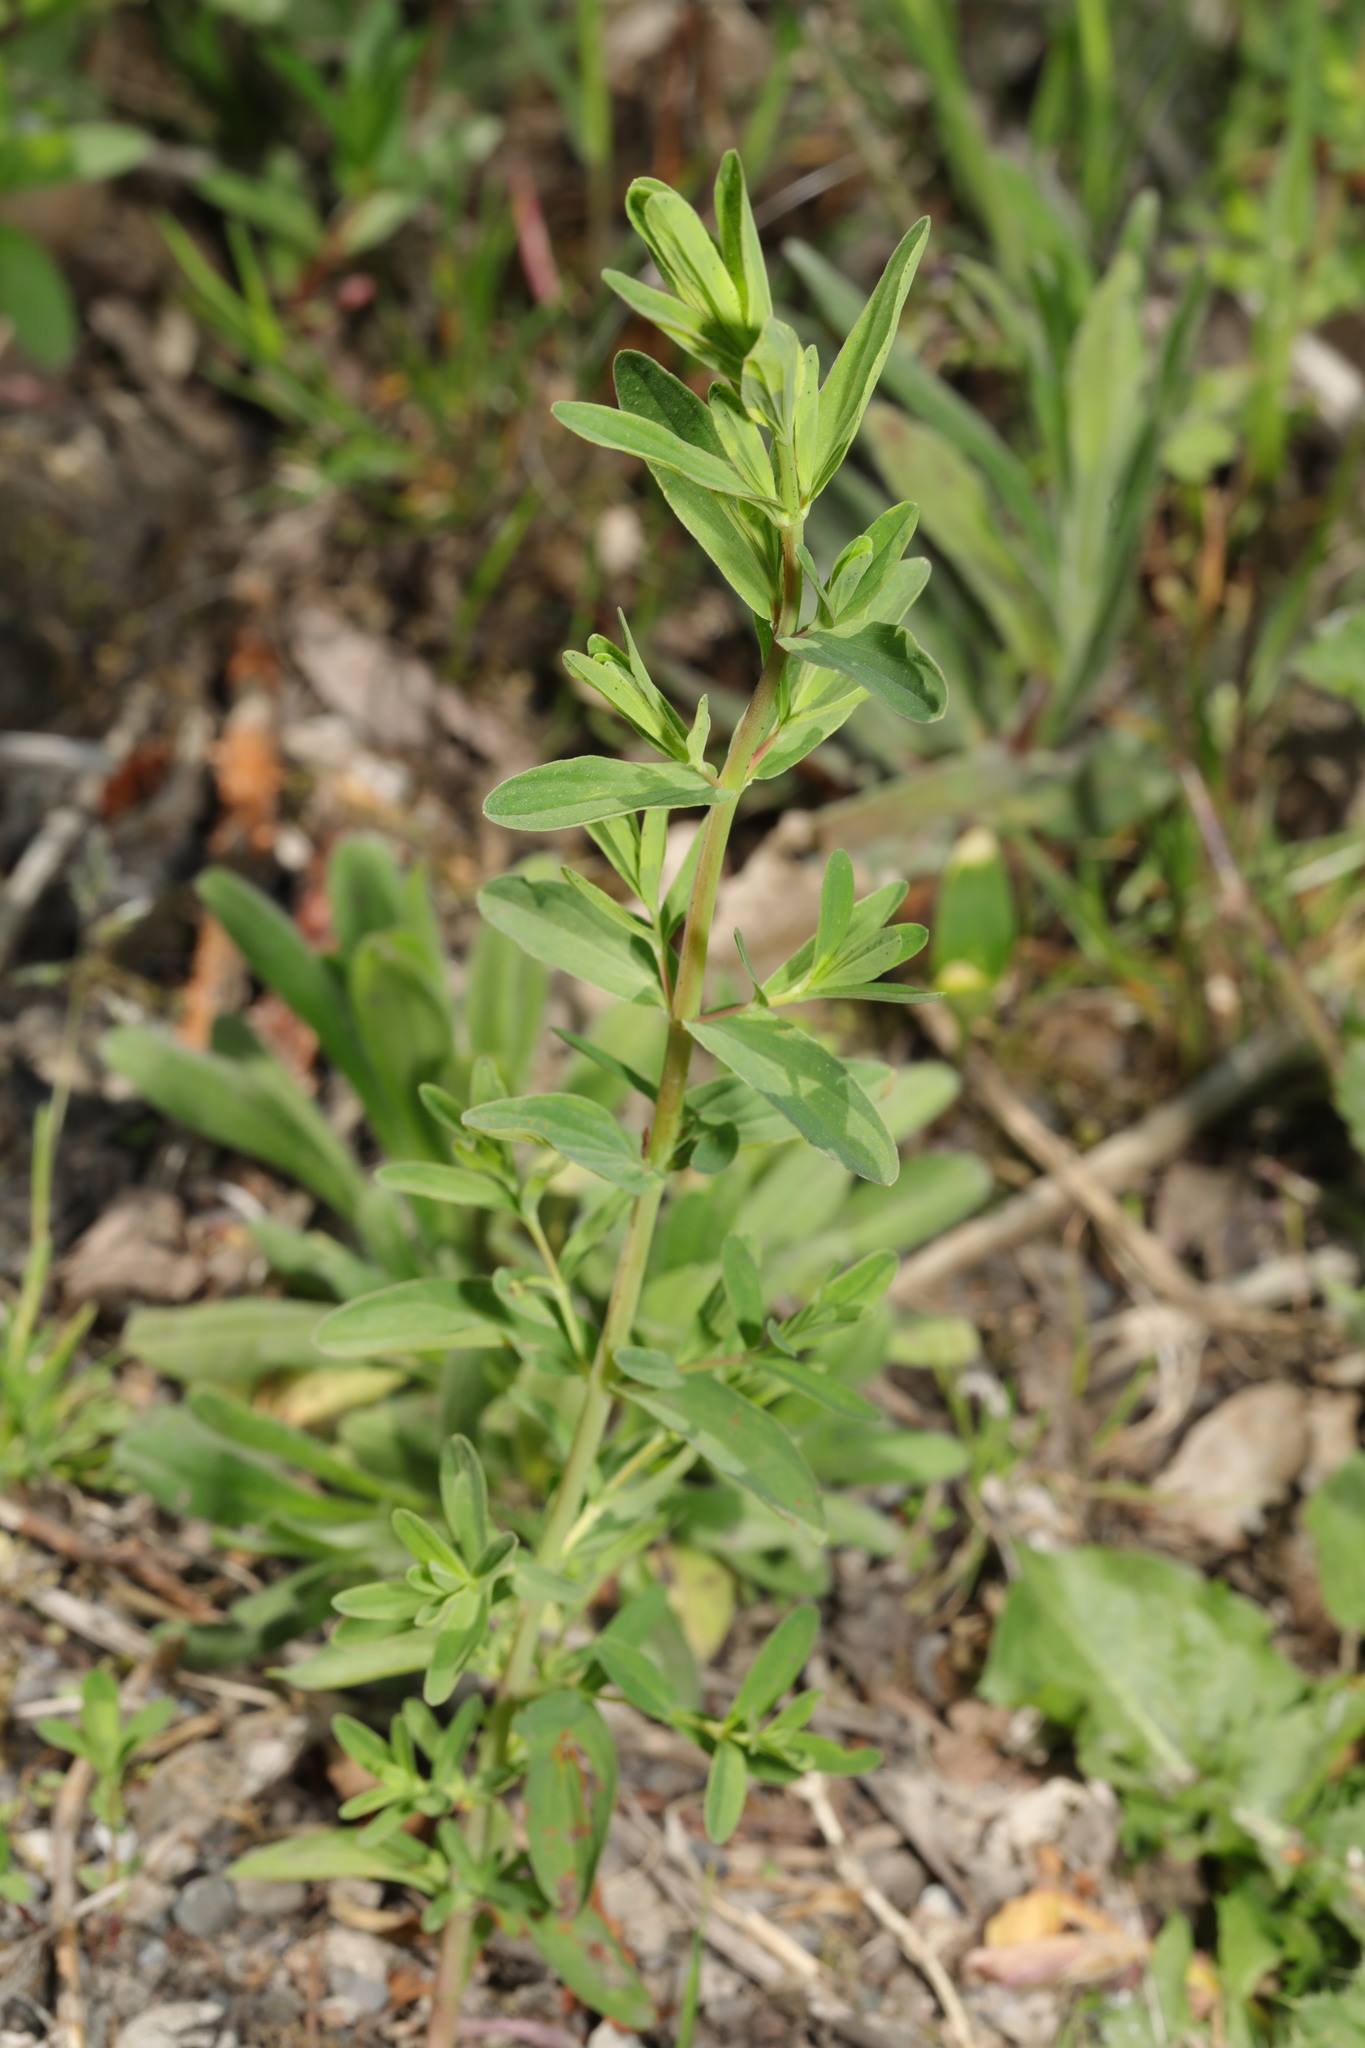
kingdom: Plantae
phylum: Tracheophyta
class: Magnoliopsida
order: Malpighiales
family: Hypericaceae
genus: Hypericum
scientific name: Hypericum perforatum
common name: Common st. johnswort
